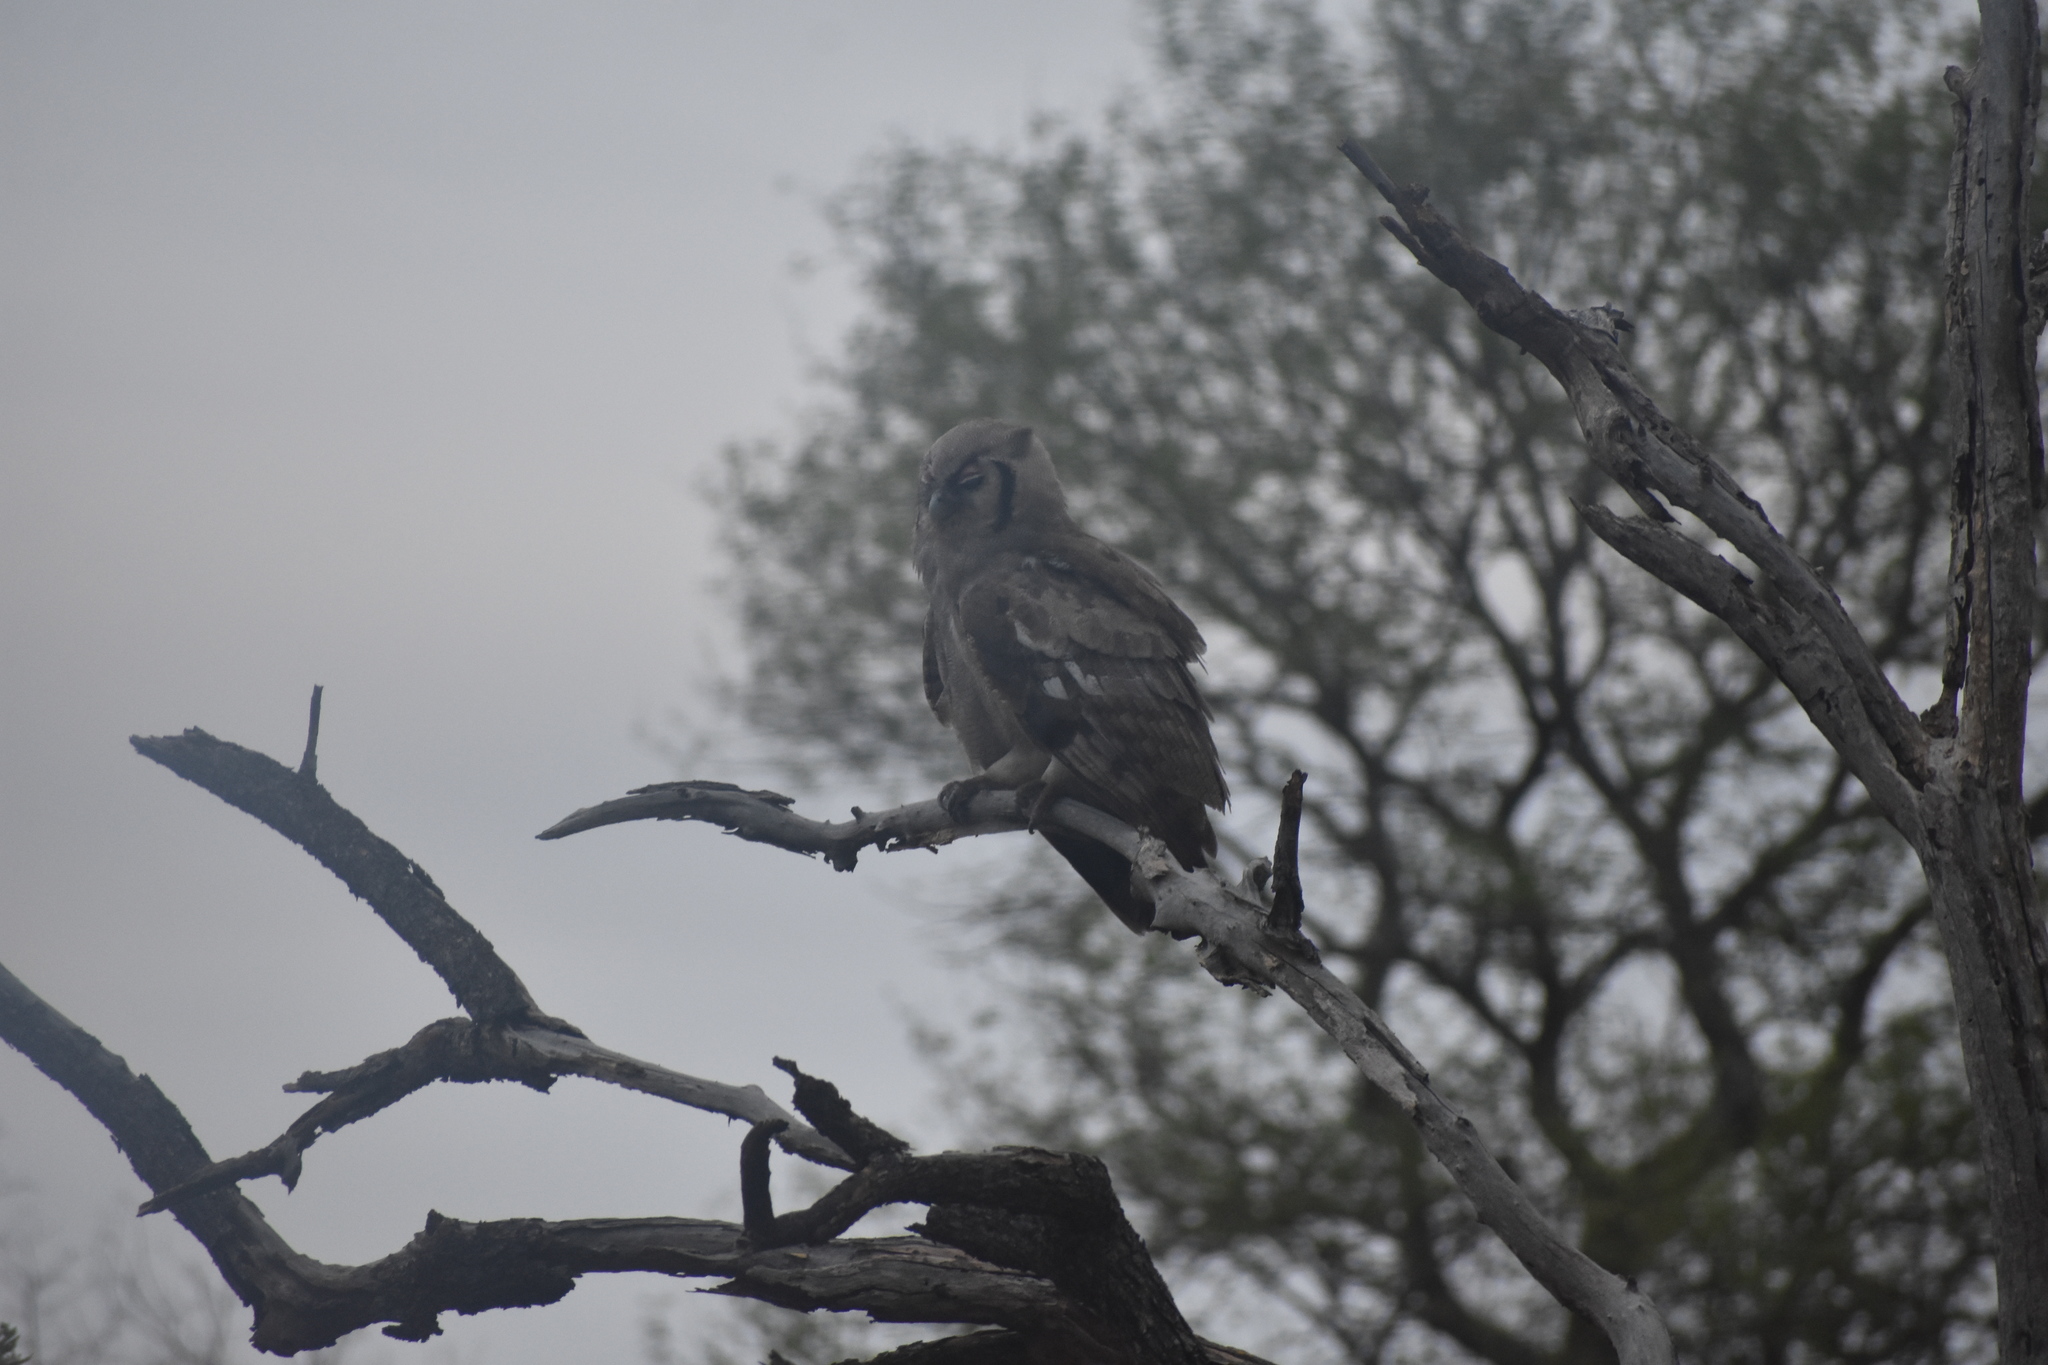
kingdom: Animalia
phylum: Chordata
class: Aves
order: Strigiformes
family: Strigidae
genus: Bubo
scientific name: Bubo lacteus
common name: Verreaux's eagle-owl
